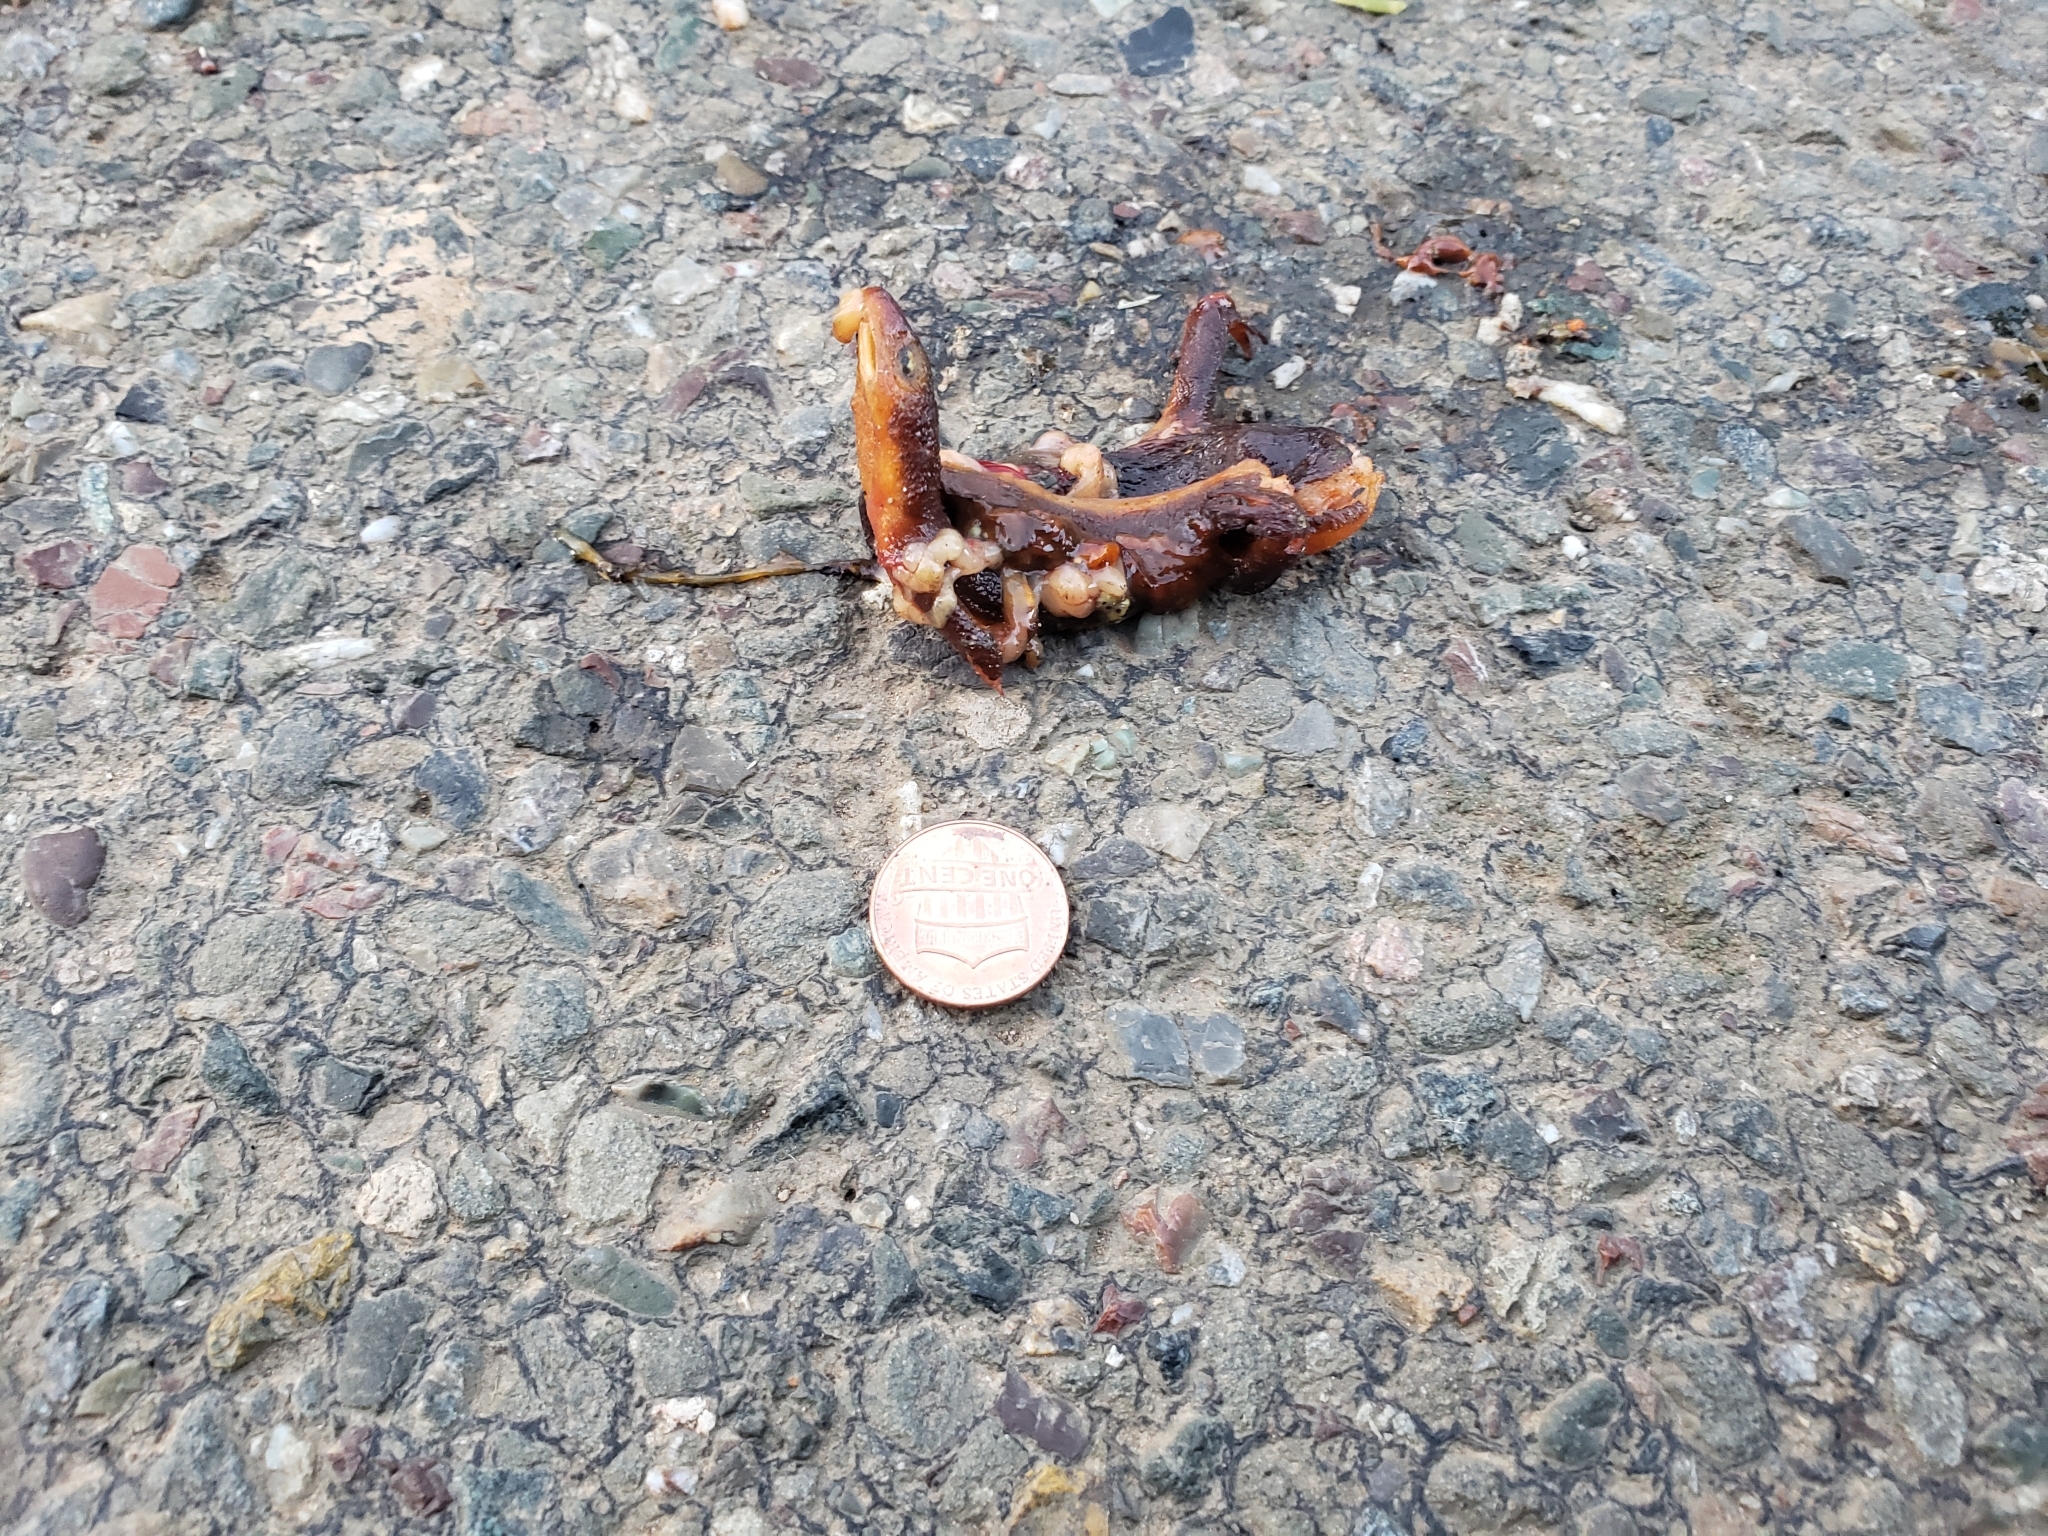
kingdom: Animalia
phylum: Chordata
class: Amphibia
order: Caudata
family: Salamandridae
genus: Taricha
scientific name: Taricha
